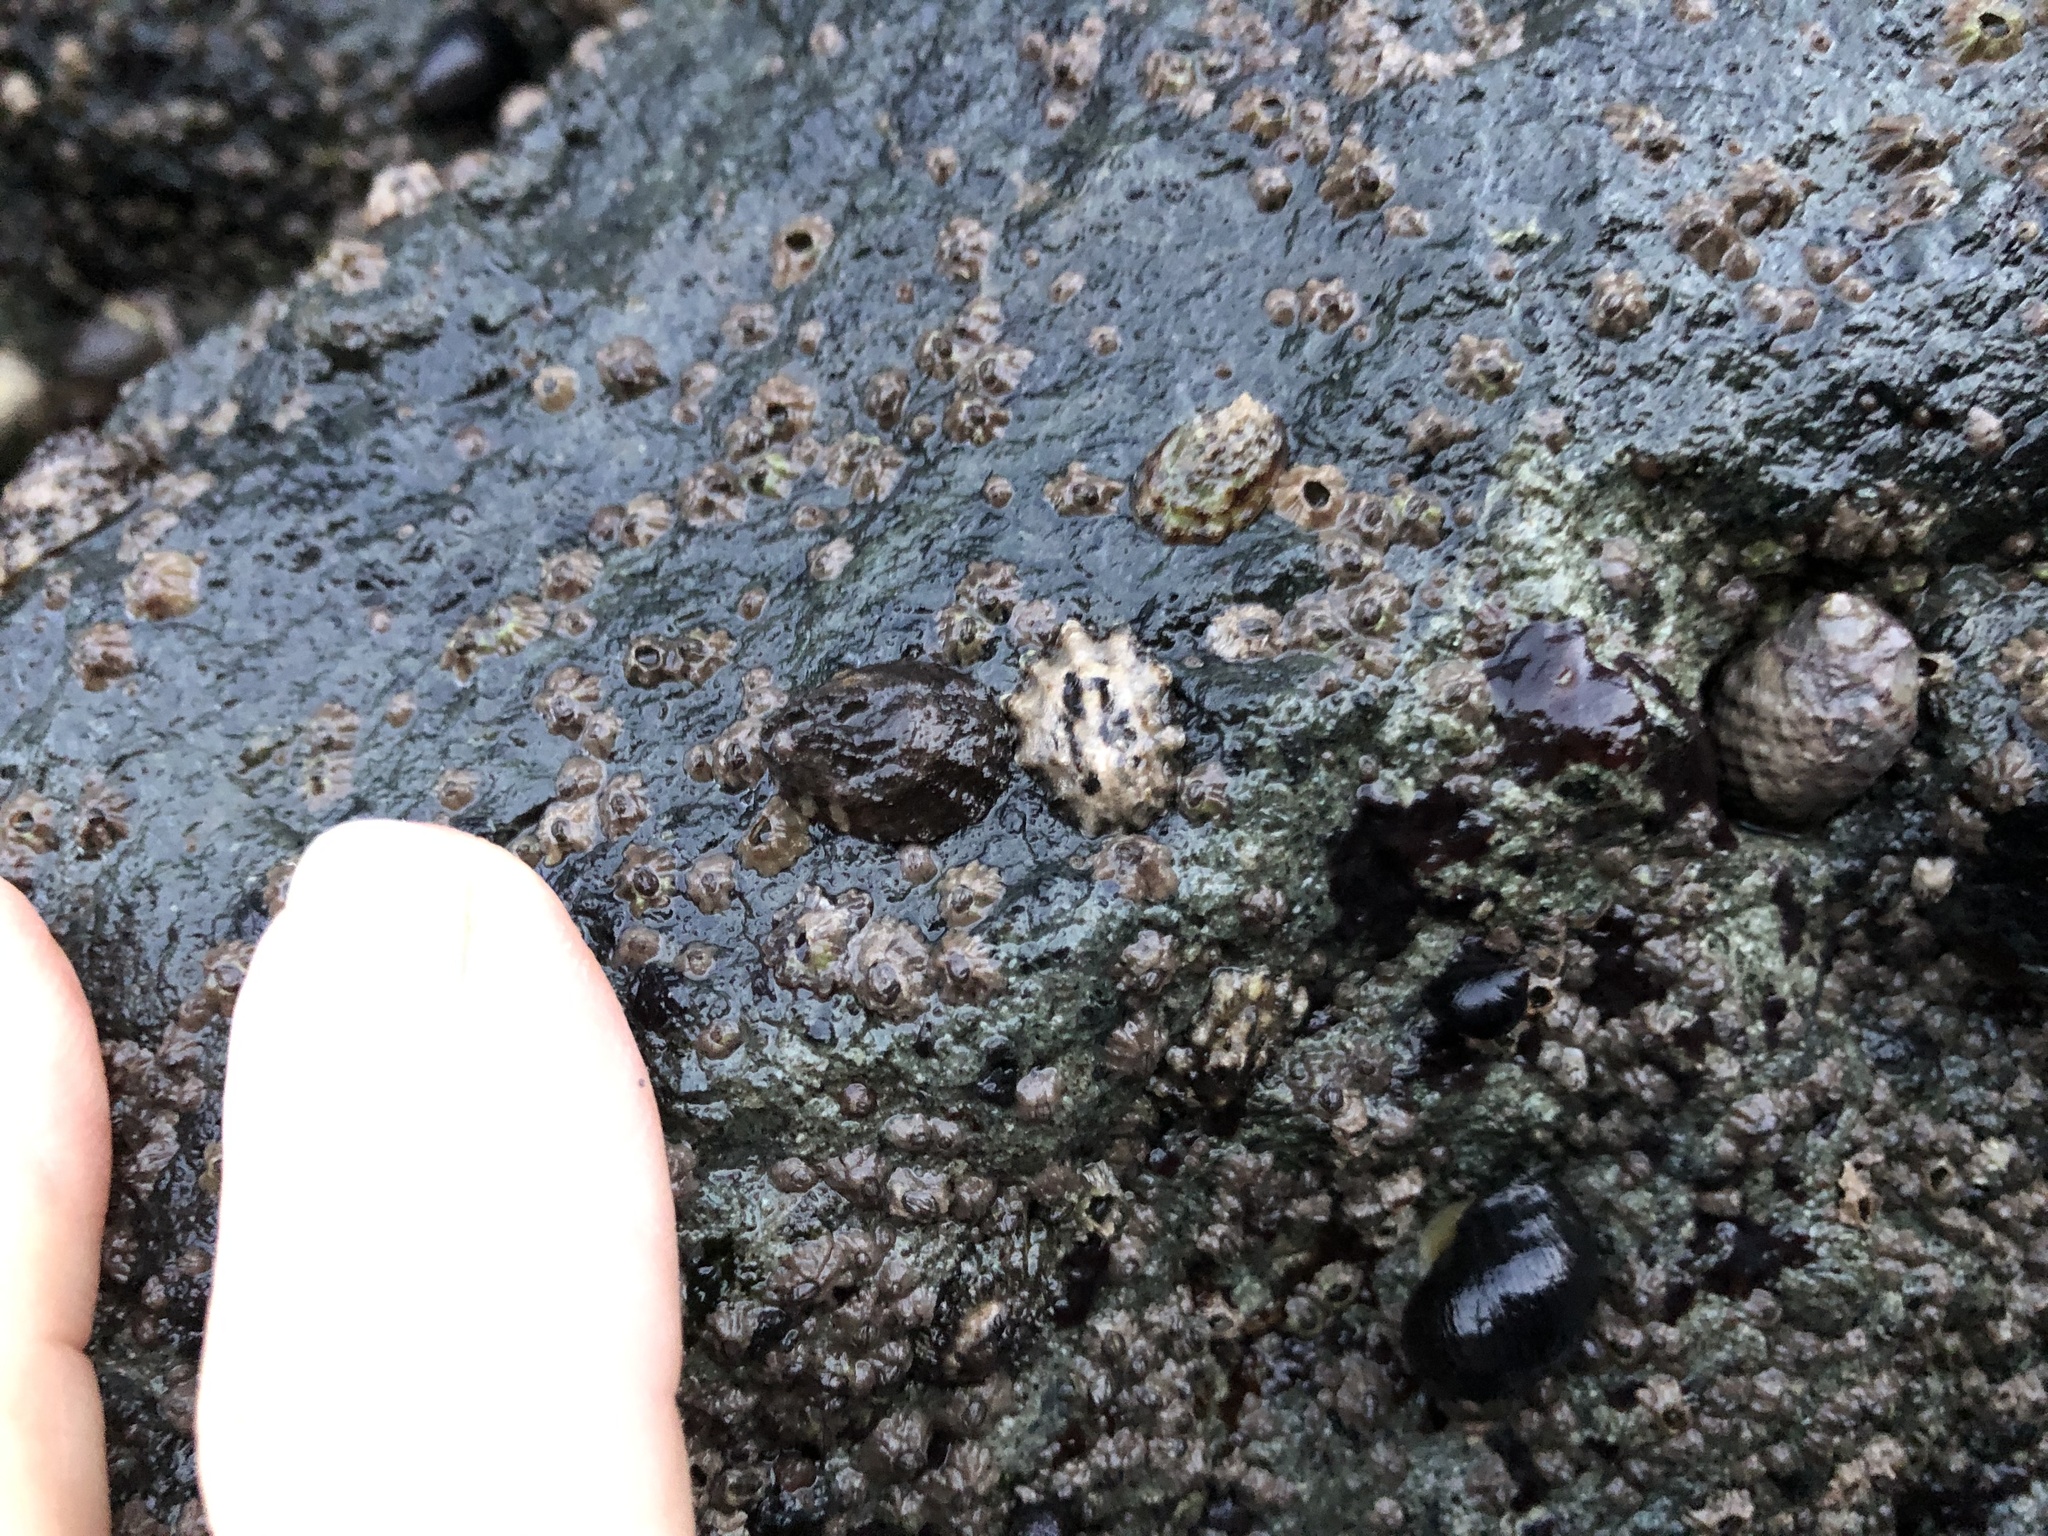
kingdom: Animalia
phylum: Mollusca
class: Gastropoda
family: Lottiidae
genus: Lottia
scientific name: Lottia scabra
